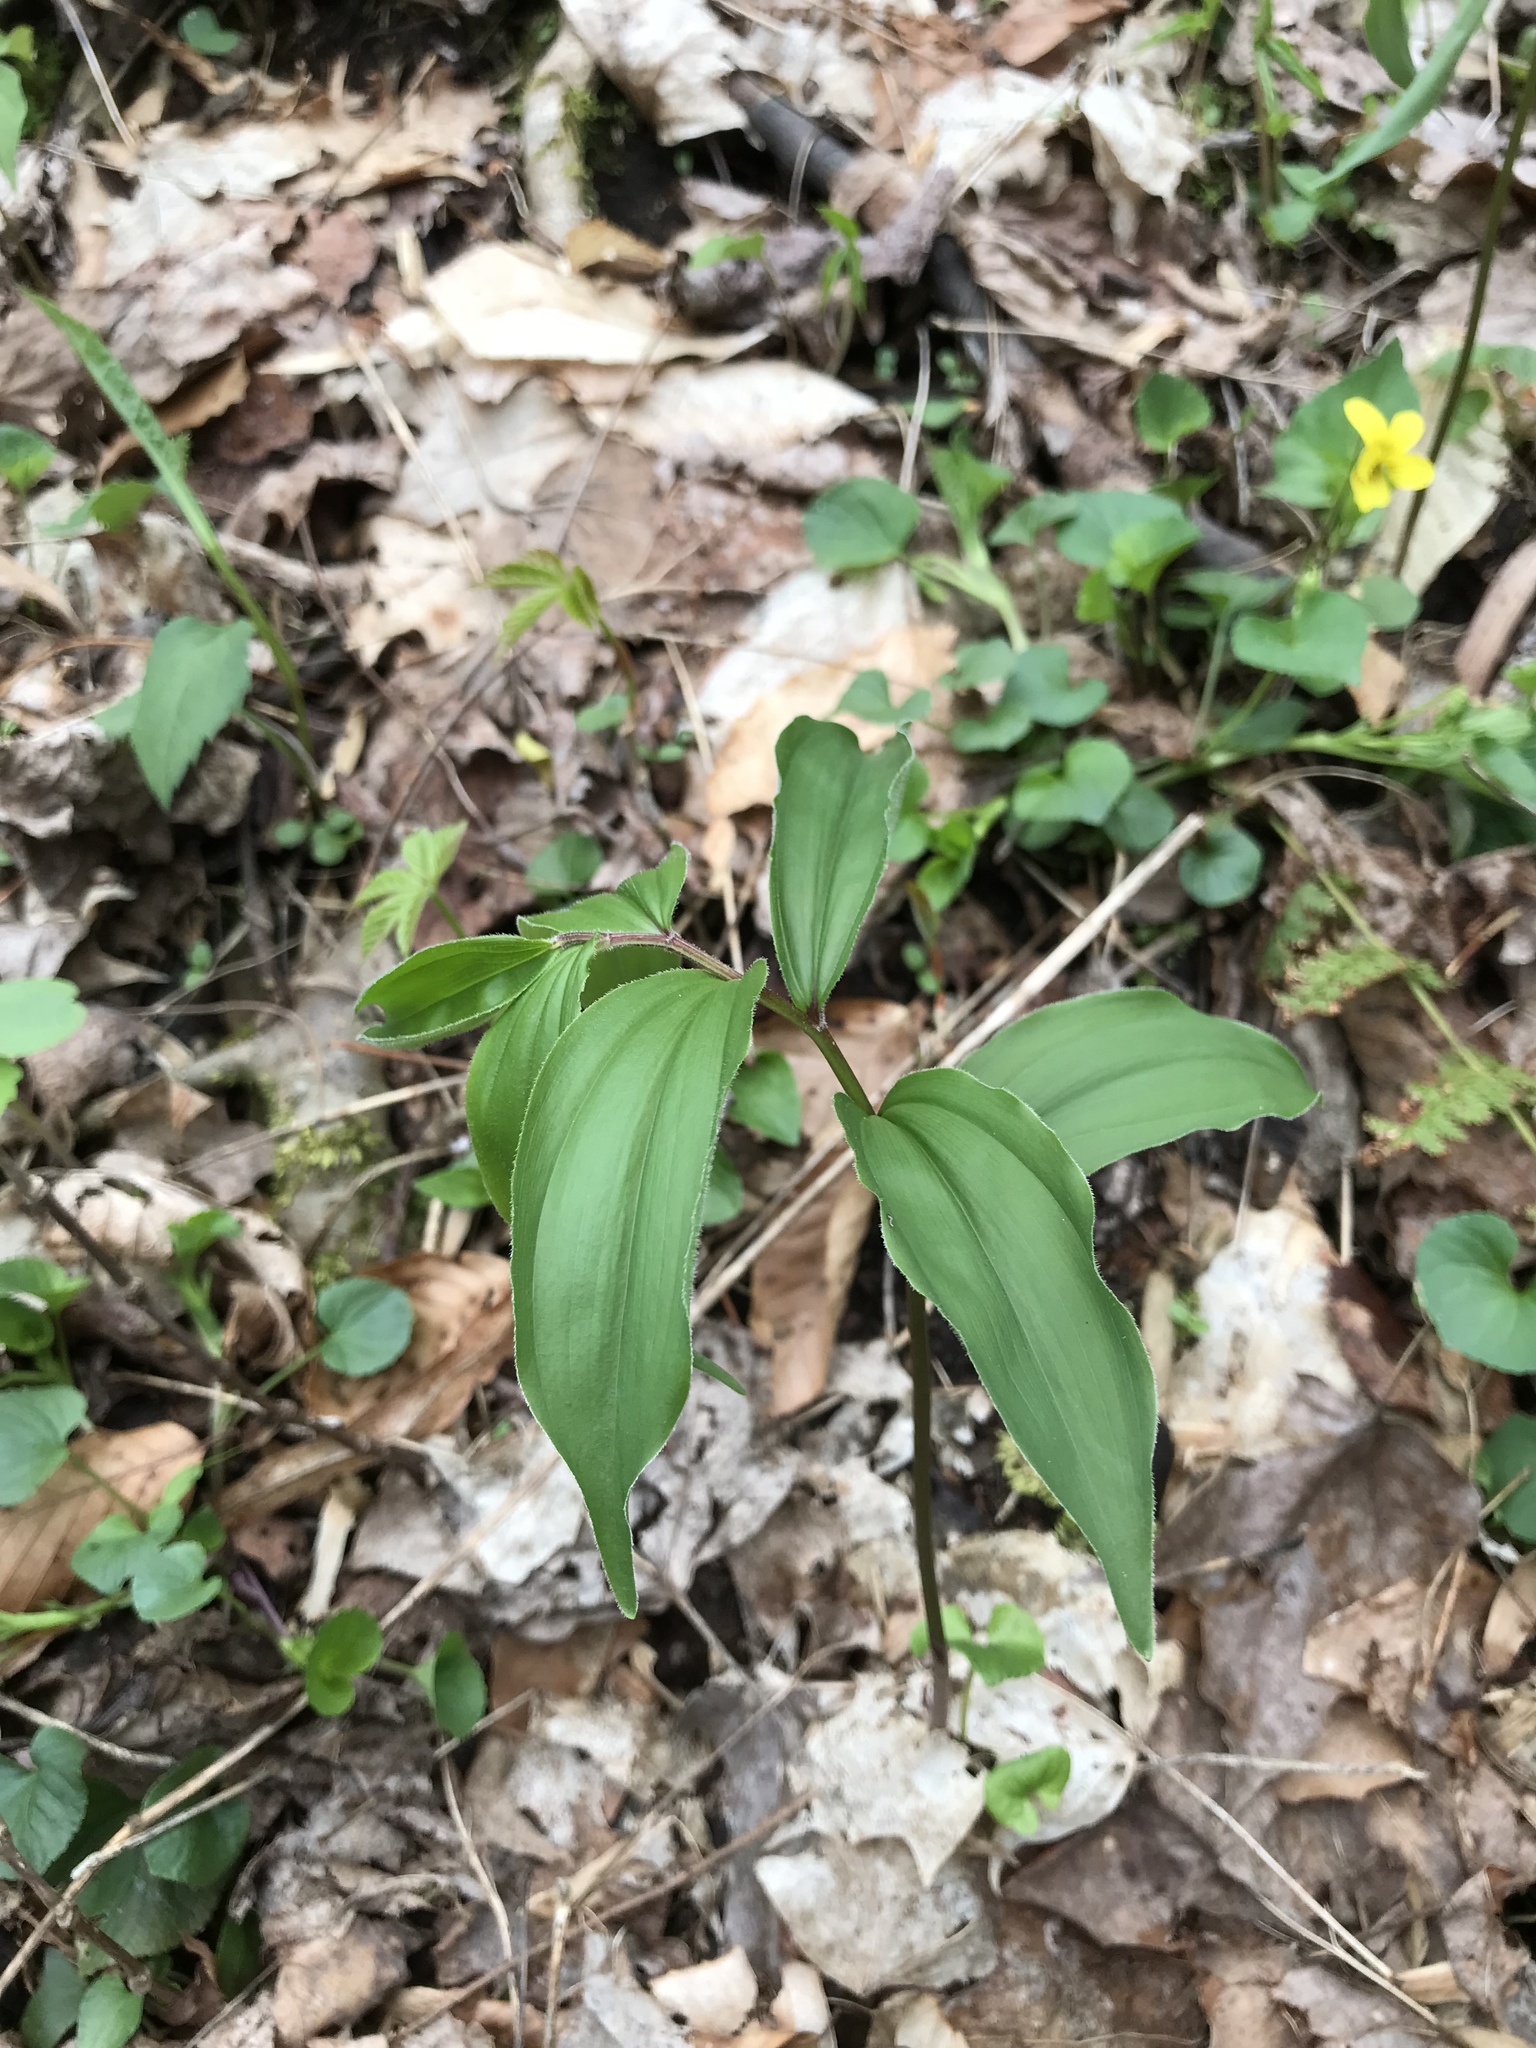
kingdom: Plantae
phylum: Tracheophyta
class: Liliopsida
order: Asparagales
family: Asparagaceae
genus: Maianthemum
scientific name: Maianthemum racemosum
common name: False spikenard
